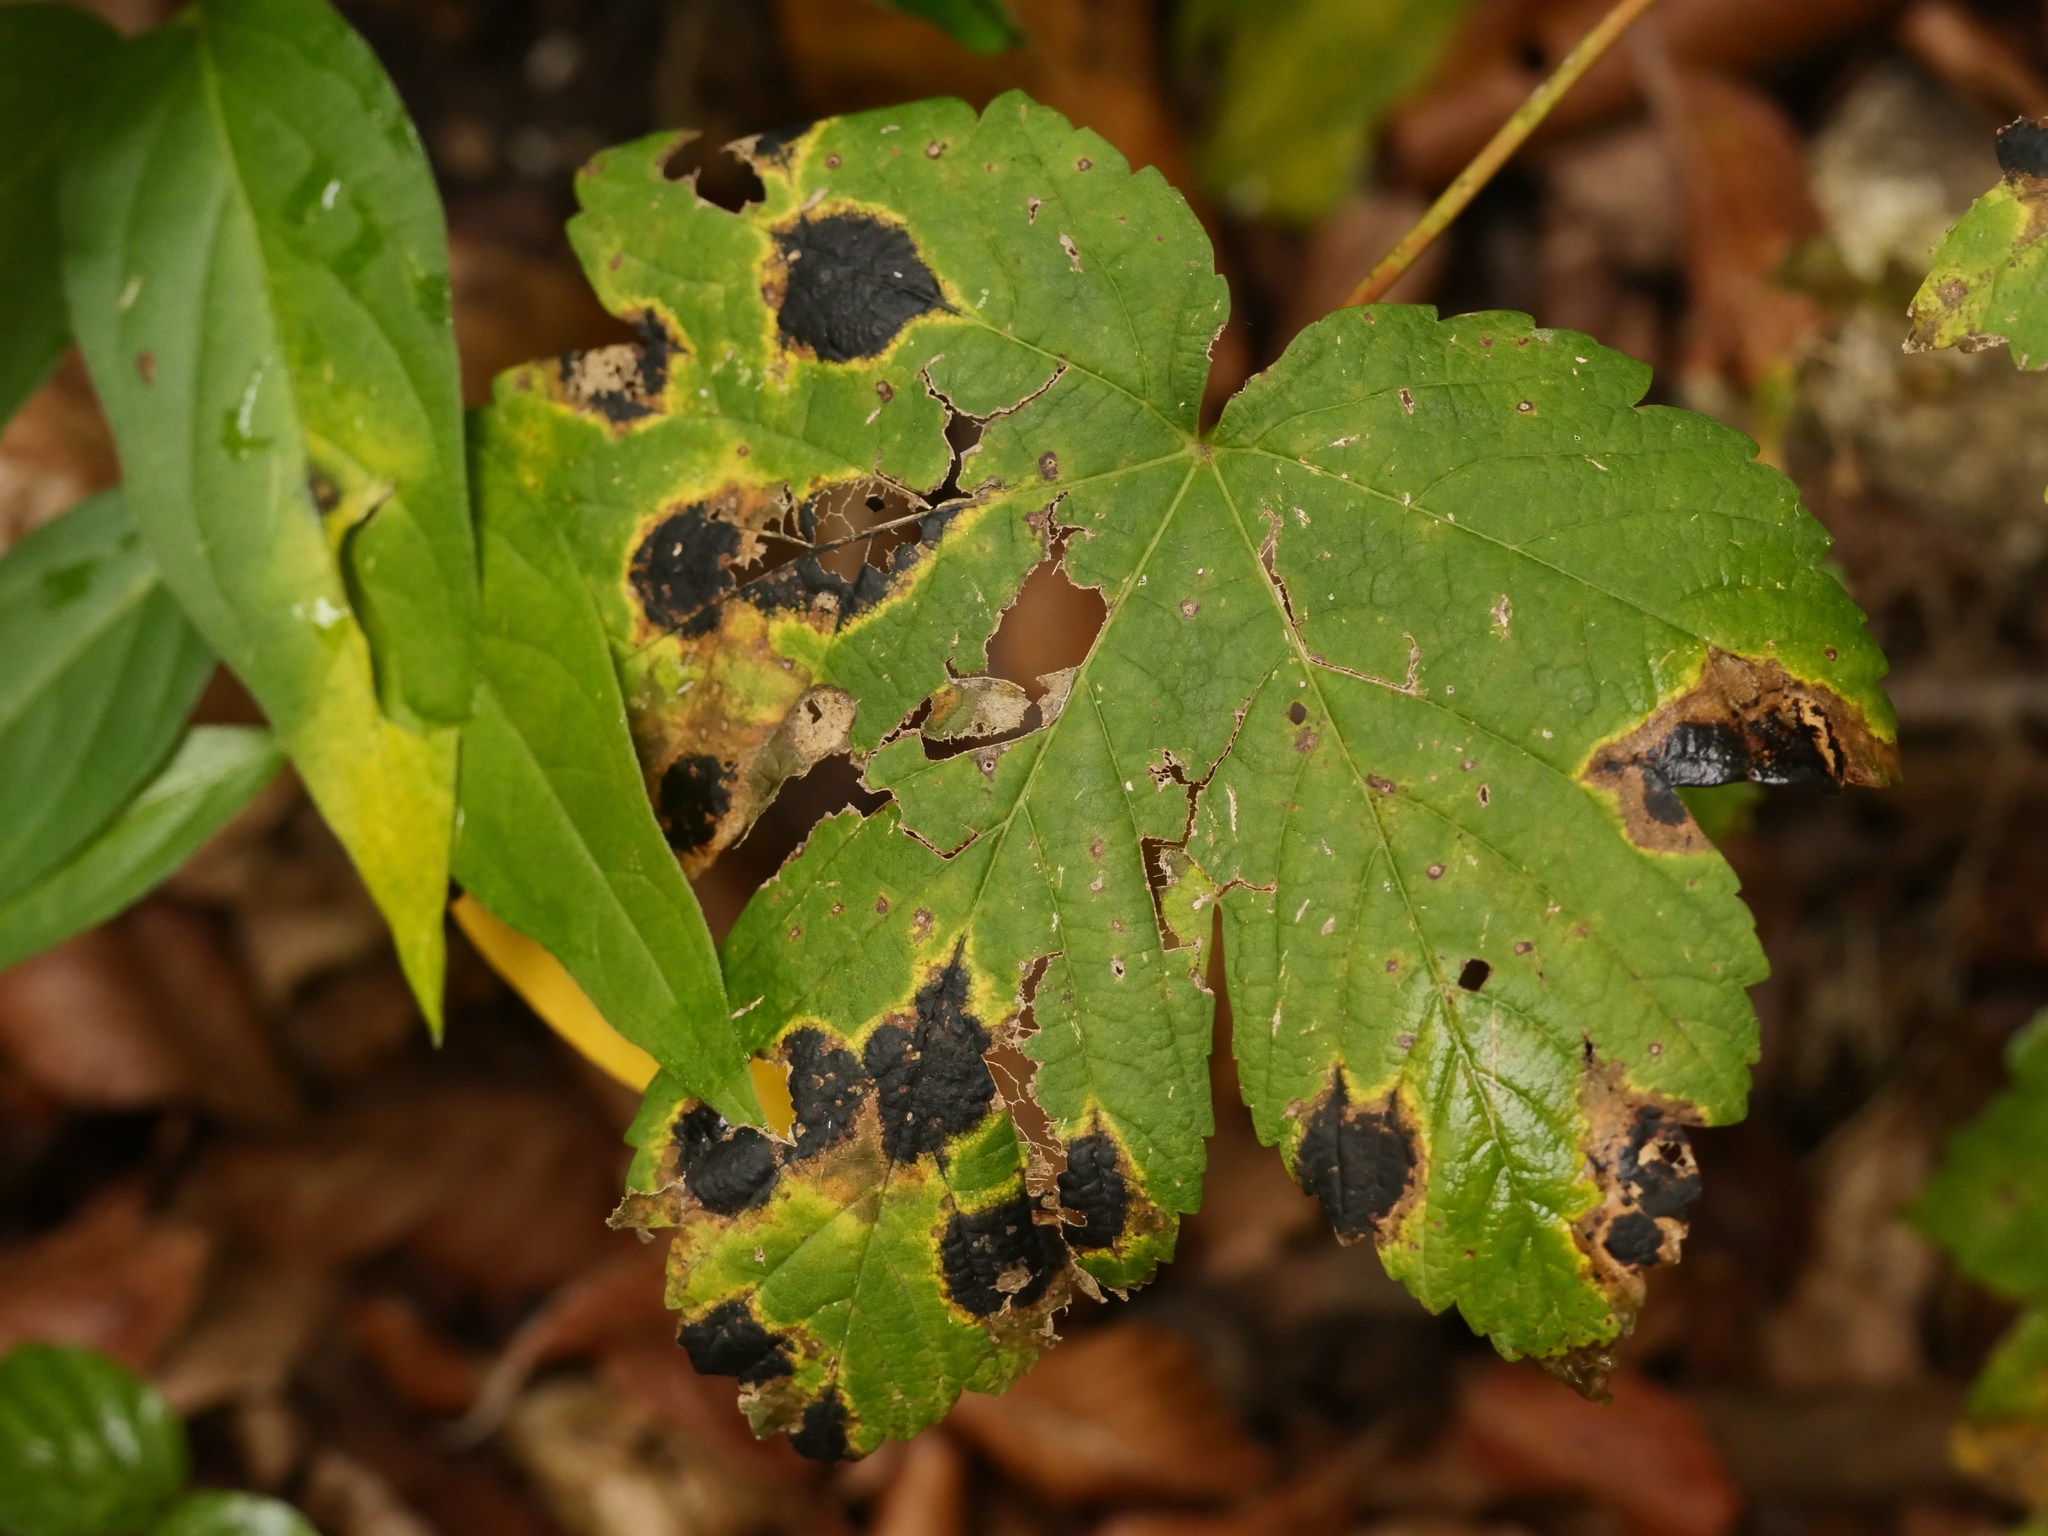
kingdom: Fungi
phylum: Ascomycota
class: Leotiomycetes
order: Rhytismatales
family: Rhytismataceae
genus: Rhytisma
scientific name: Rhytisma acerinum
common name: European tar spot
